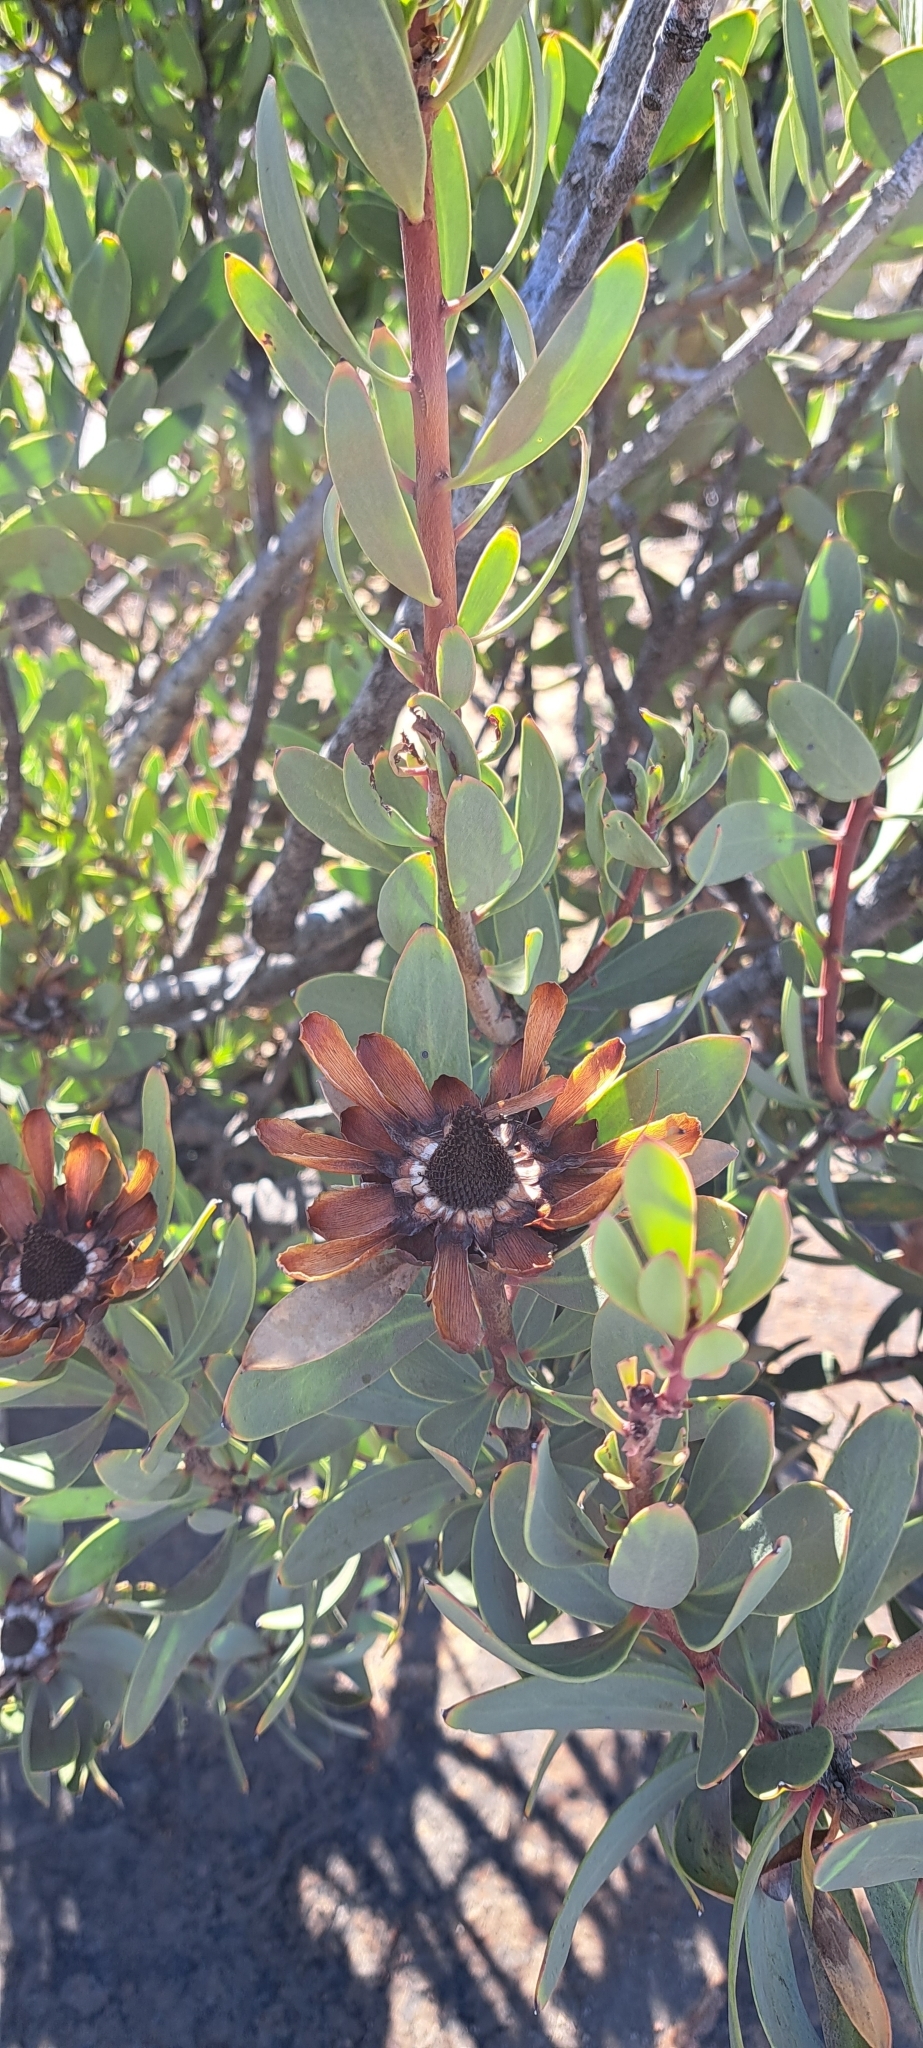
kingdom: Plantae
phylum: Tracheophyta
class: Magnoliopsida
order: Proteales
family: Proteaceae
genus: Protea
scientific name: Protea glabra
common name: Chestnut sugarbush
